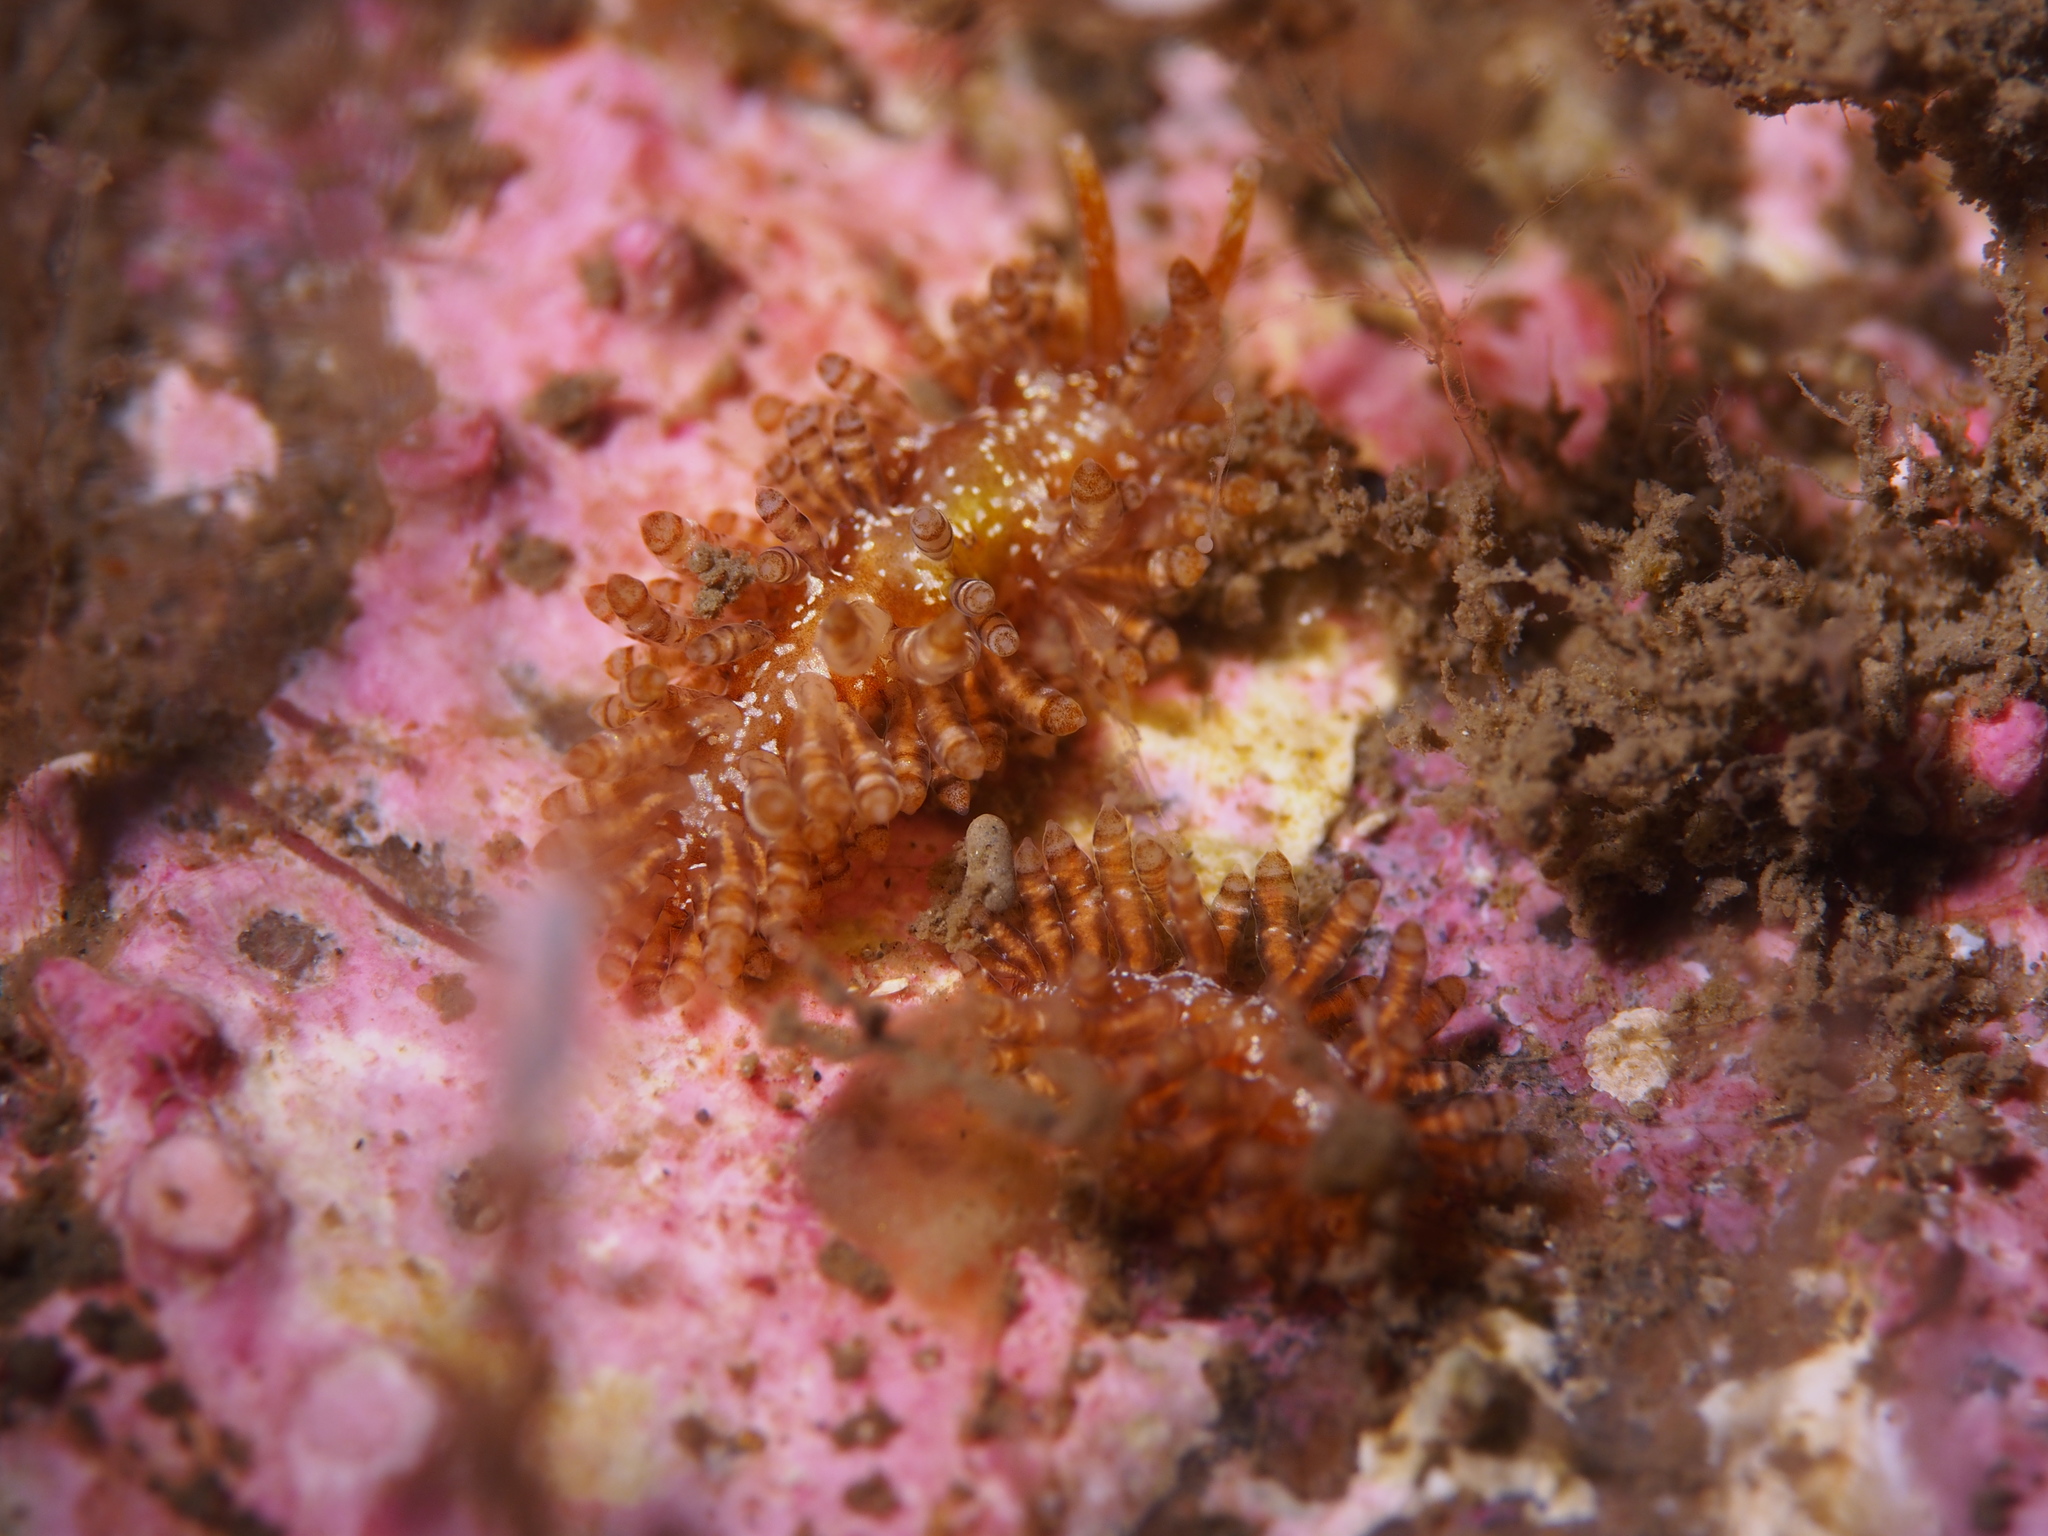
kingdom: Animalia
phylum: Mollusca
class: Gastropoda
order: Nudibranchia
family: Eubranchidae
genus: Eubranchus
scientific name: Eubranchus vittatus
